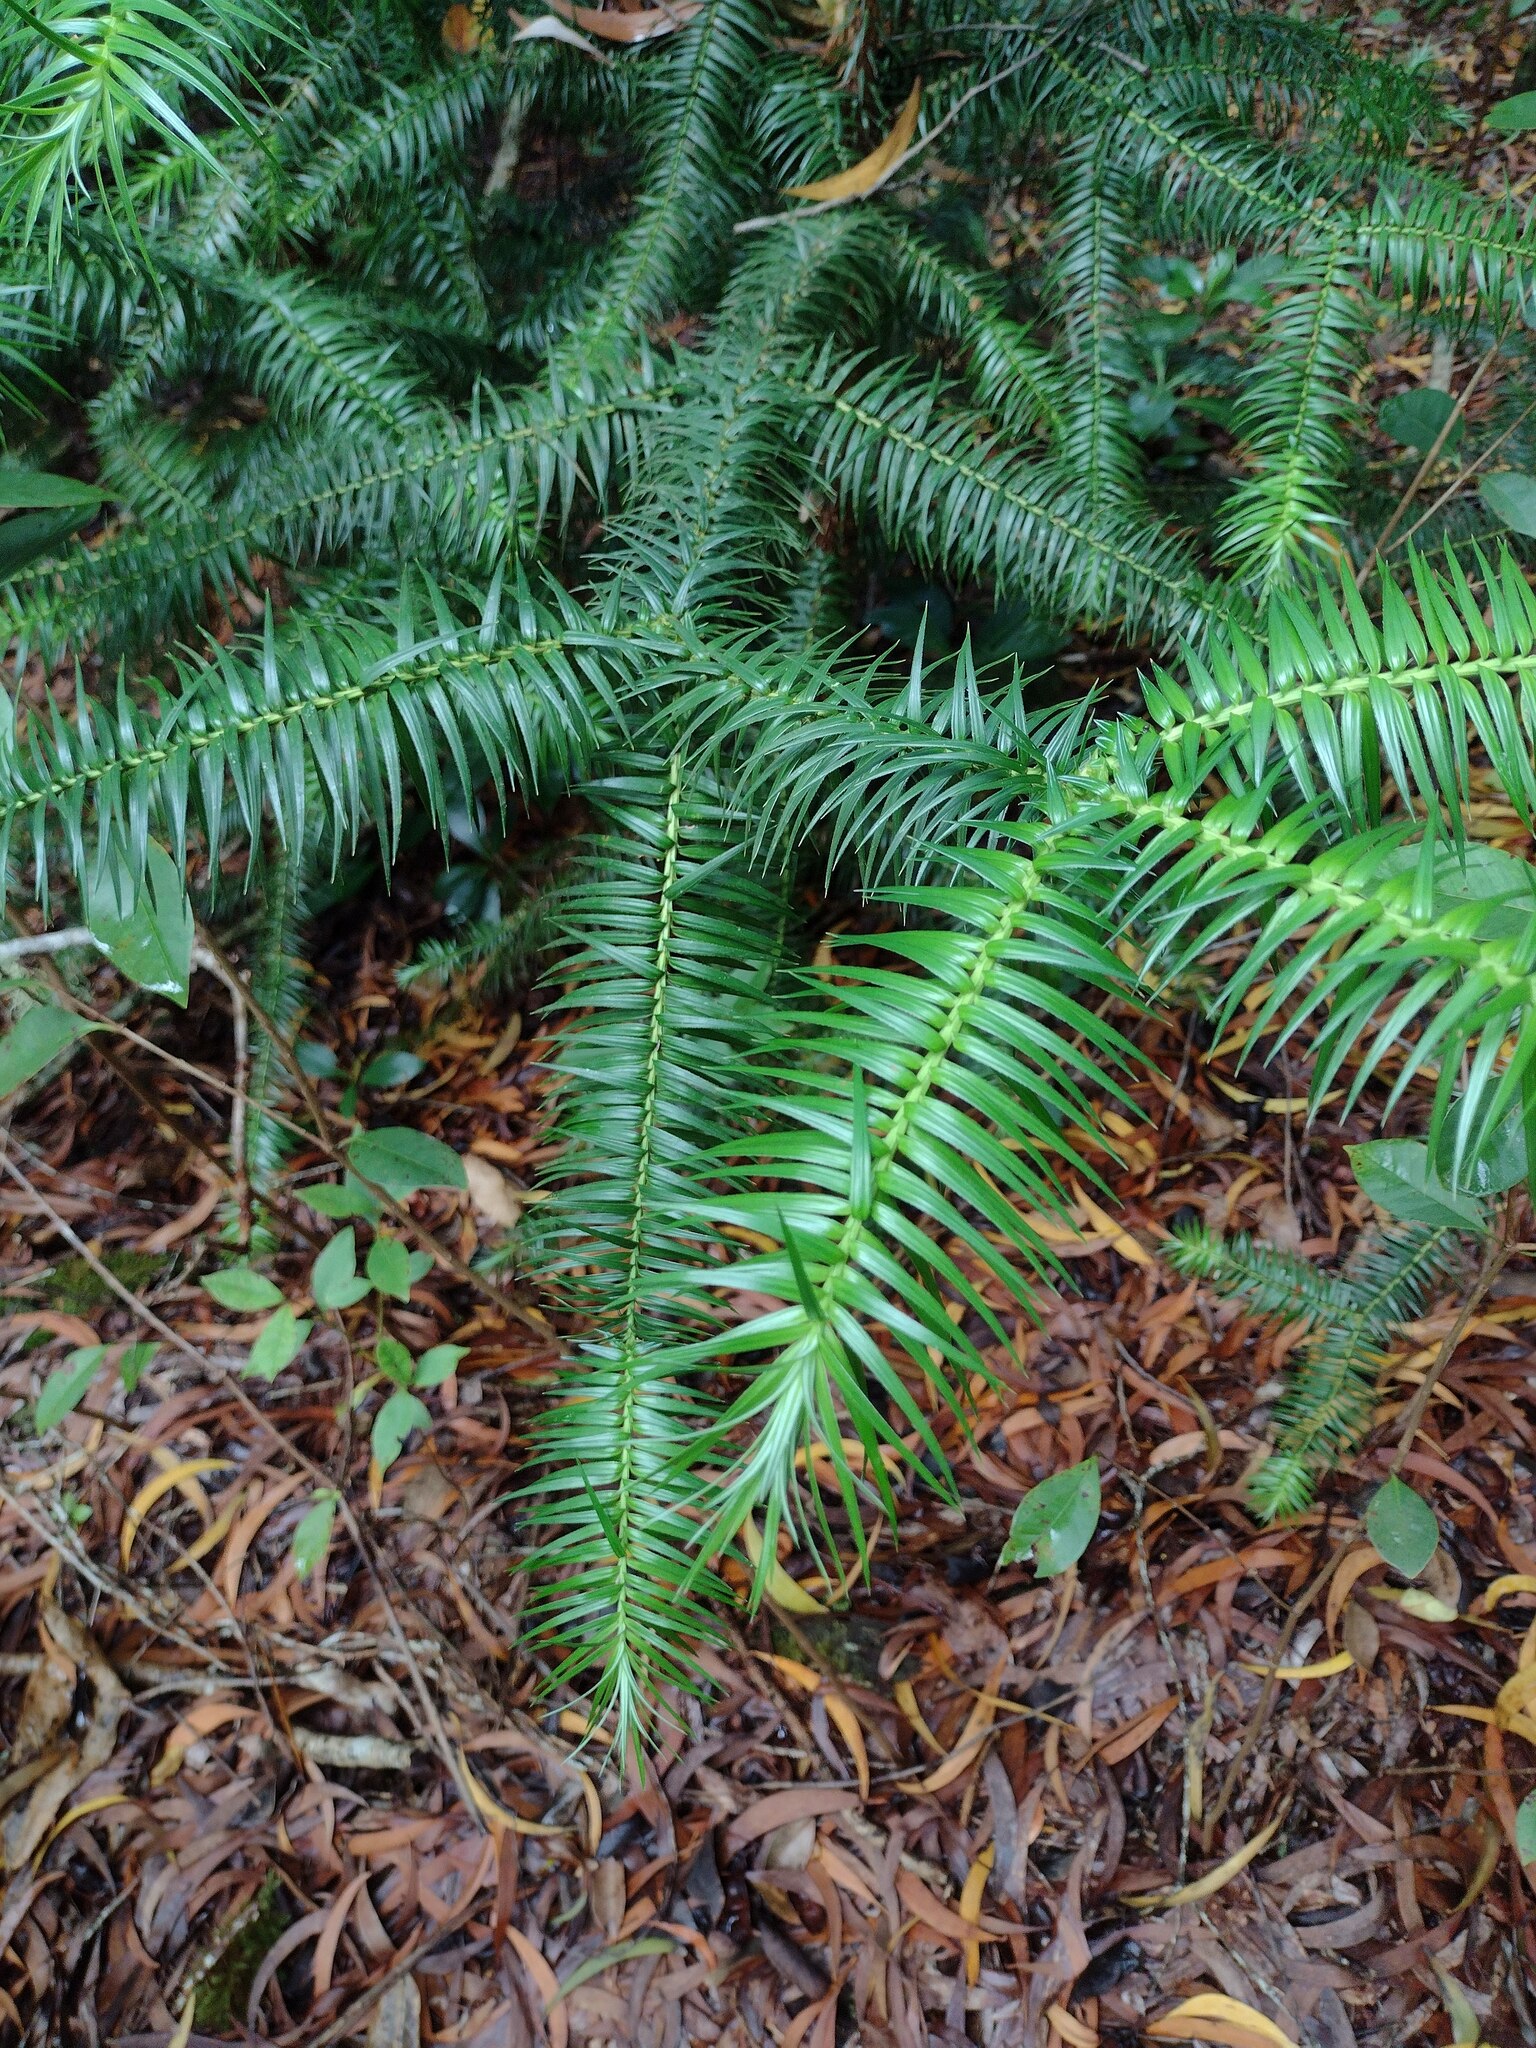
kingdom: Plantae
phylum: Tracheophyta
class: Pinopsida
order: Pinales
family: Cupressaceae
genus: Cunninghamia
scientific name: Cunninghamia lanceolata
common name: Chinese fir
